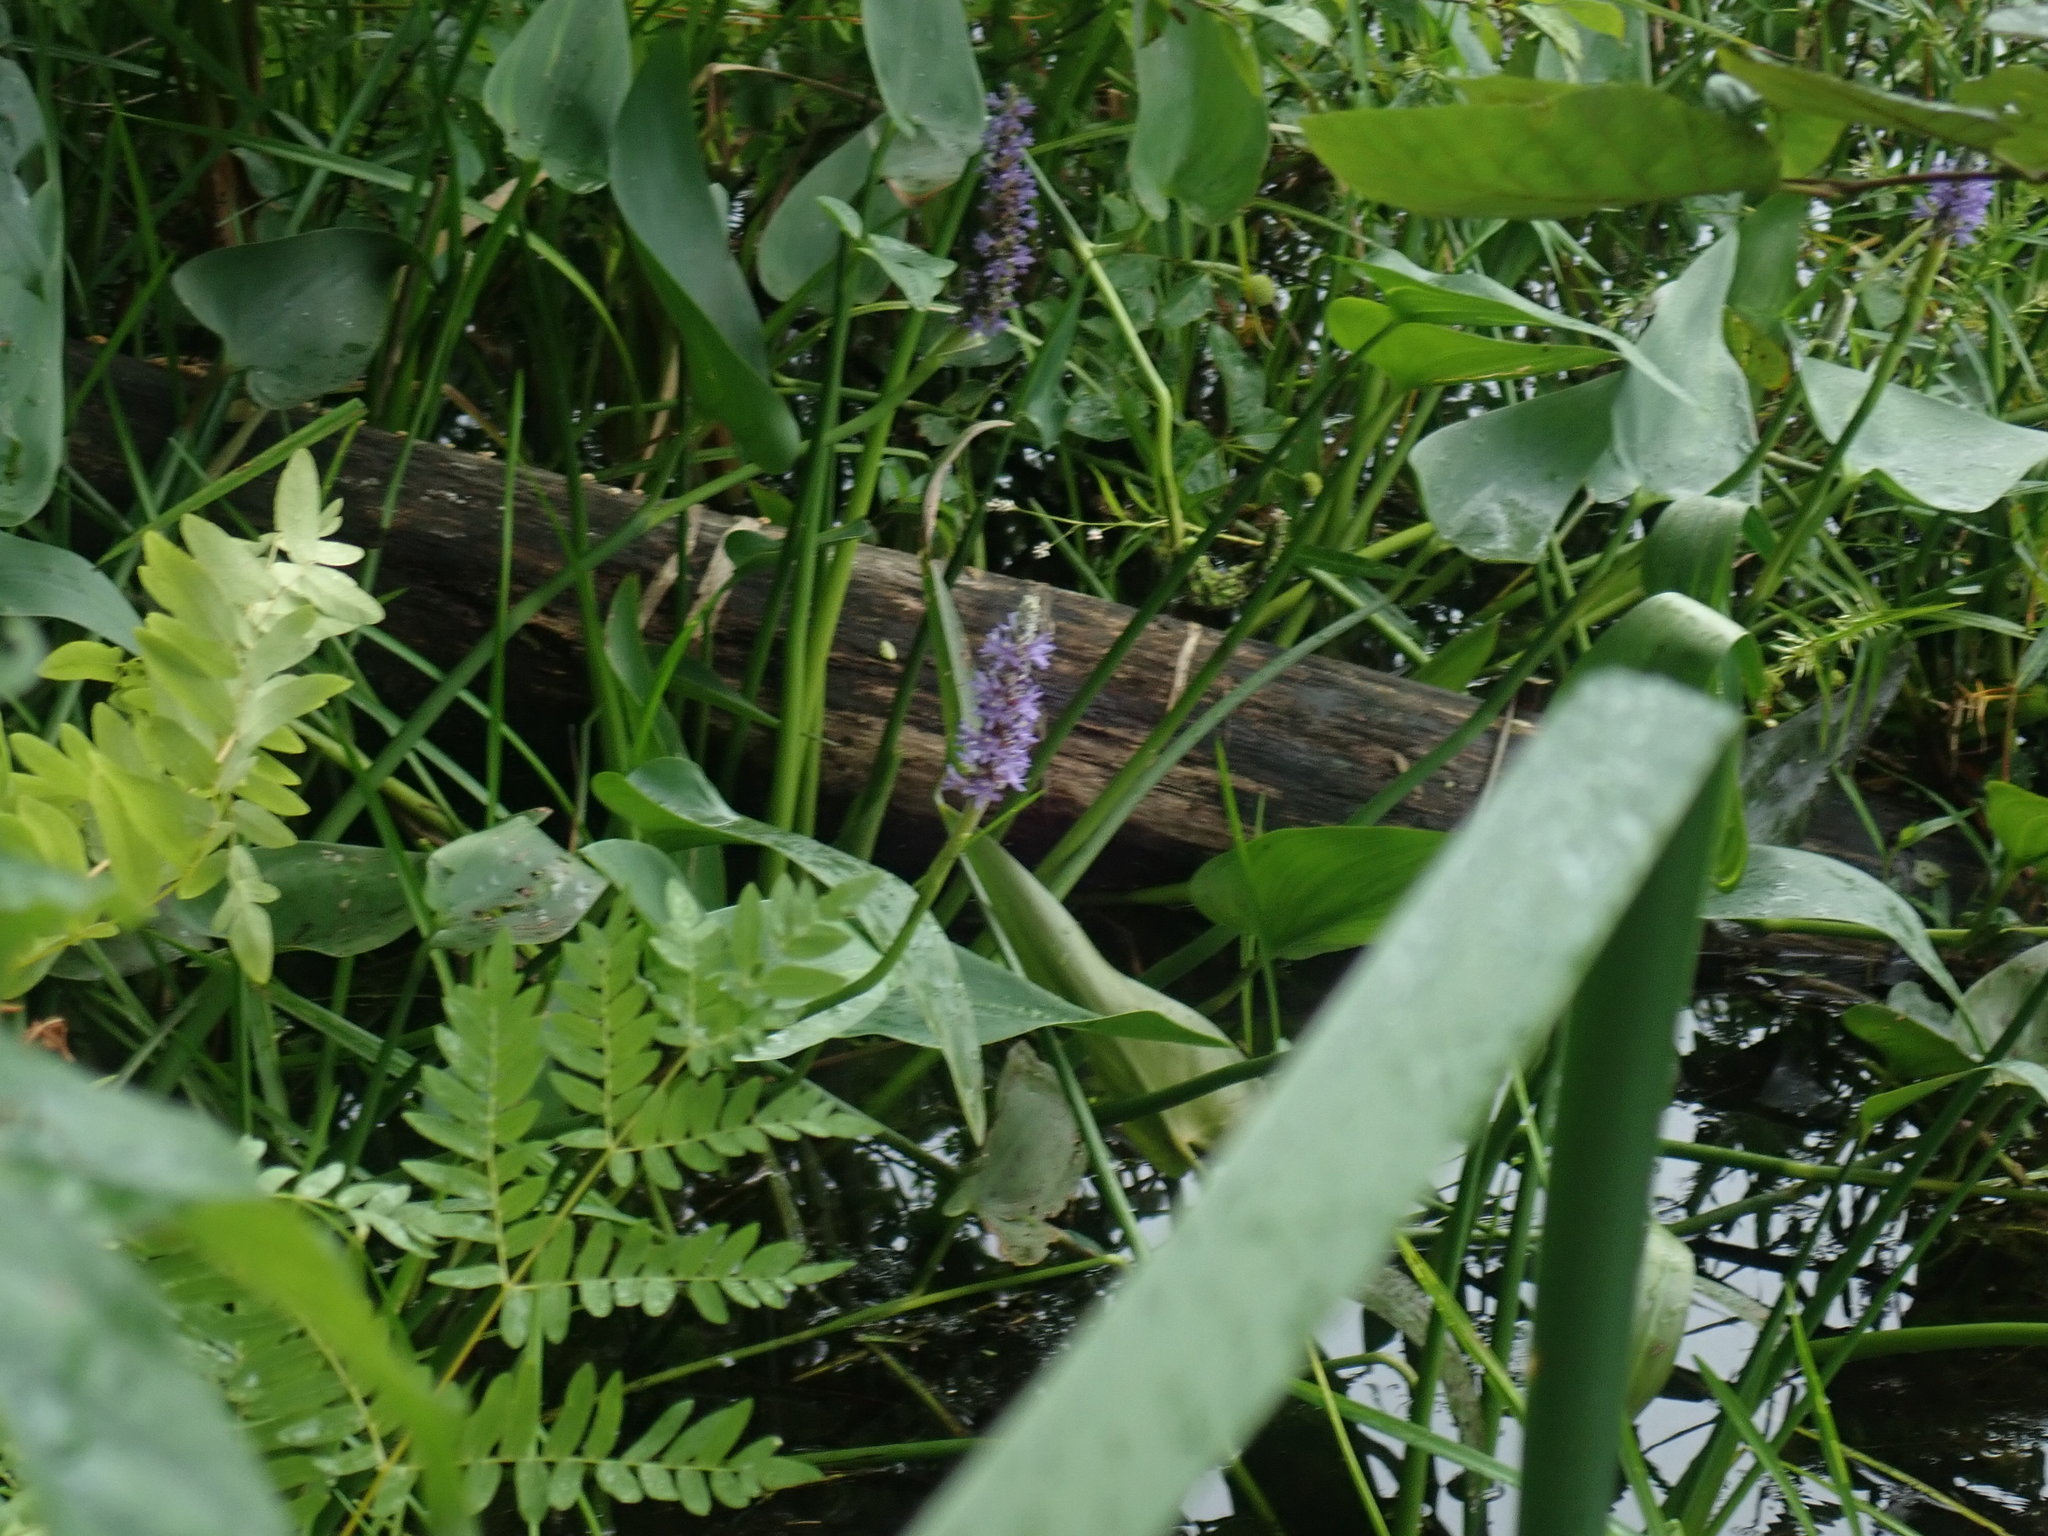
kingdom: Plantae
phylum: Tracheophyta
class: Liliopsida
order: Commelinales
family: Pontederiaceae
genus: Pontederia
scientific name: Pontederia cordata
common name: Pickerelweed
